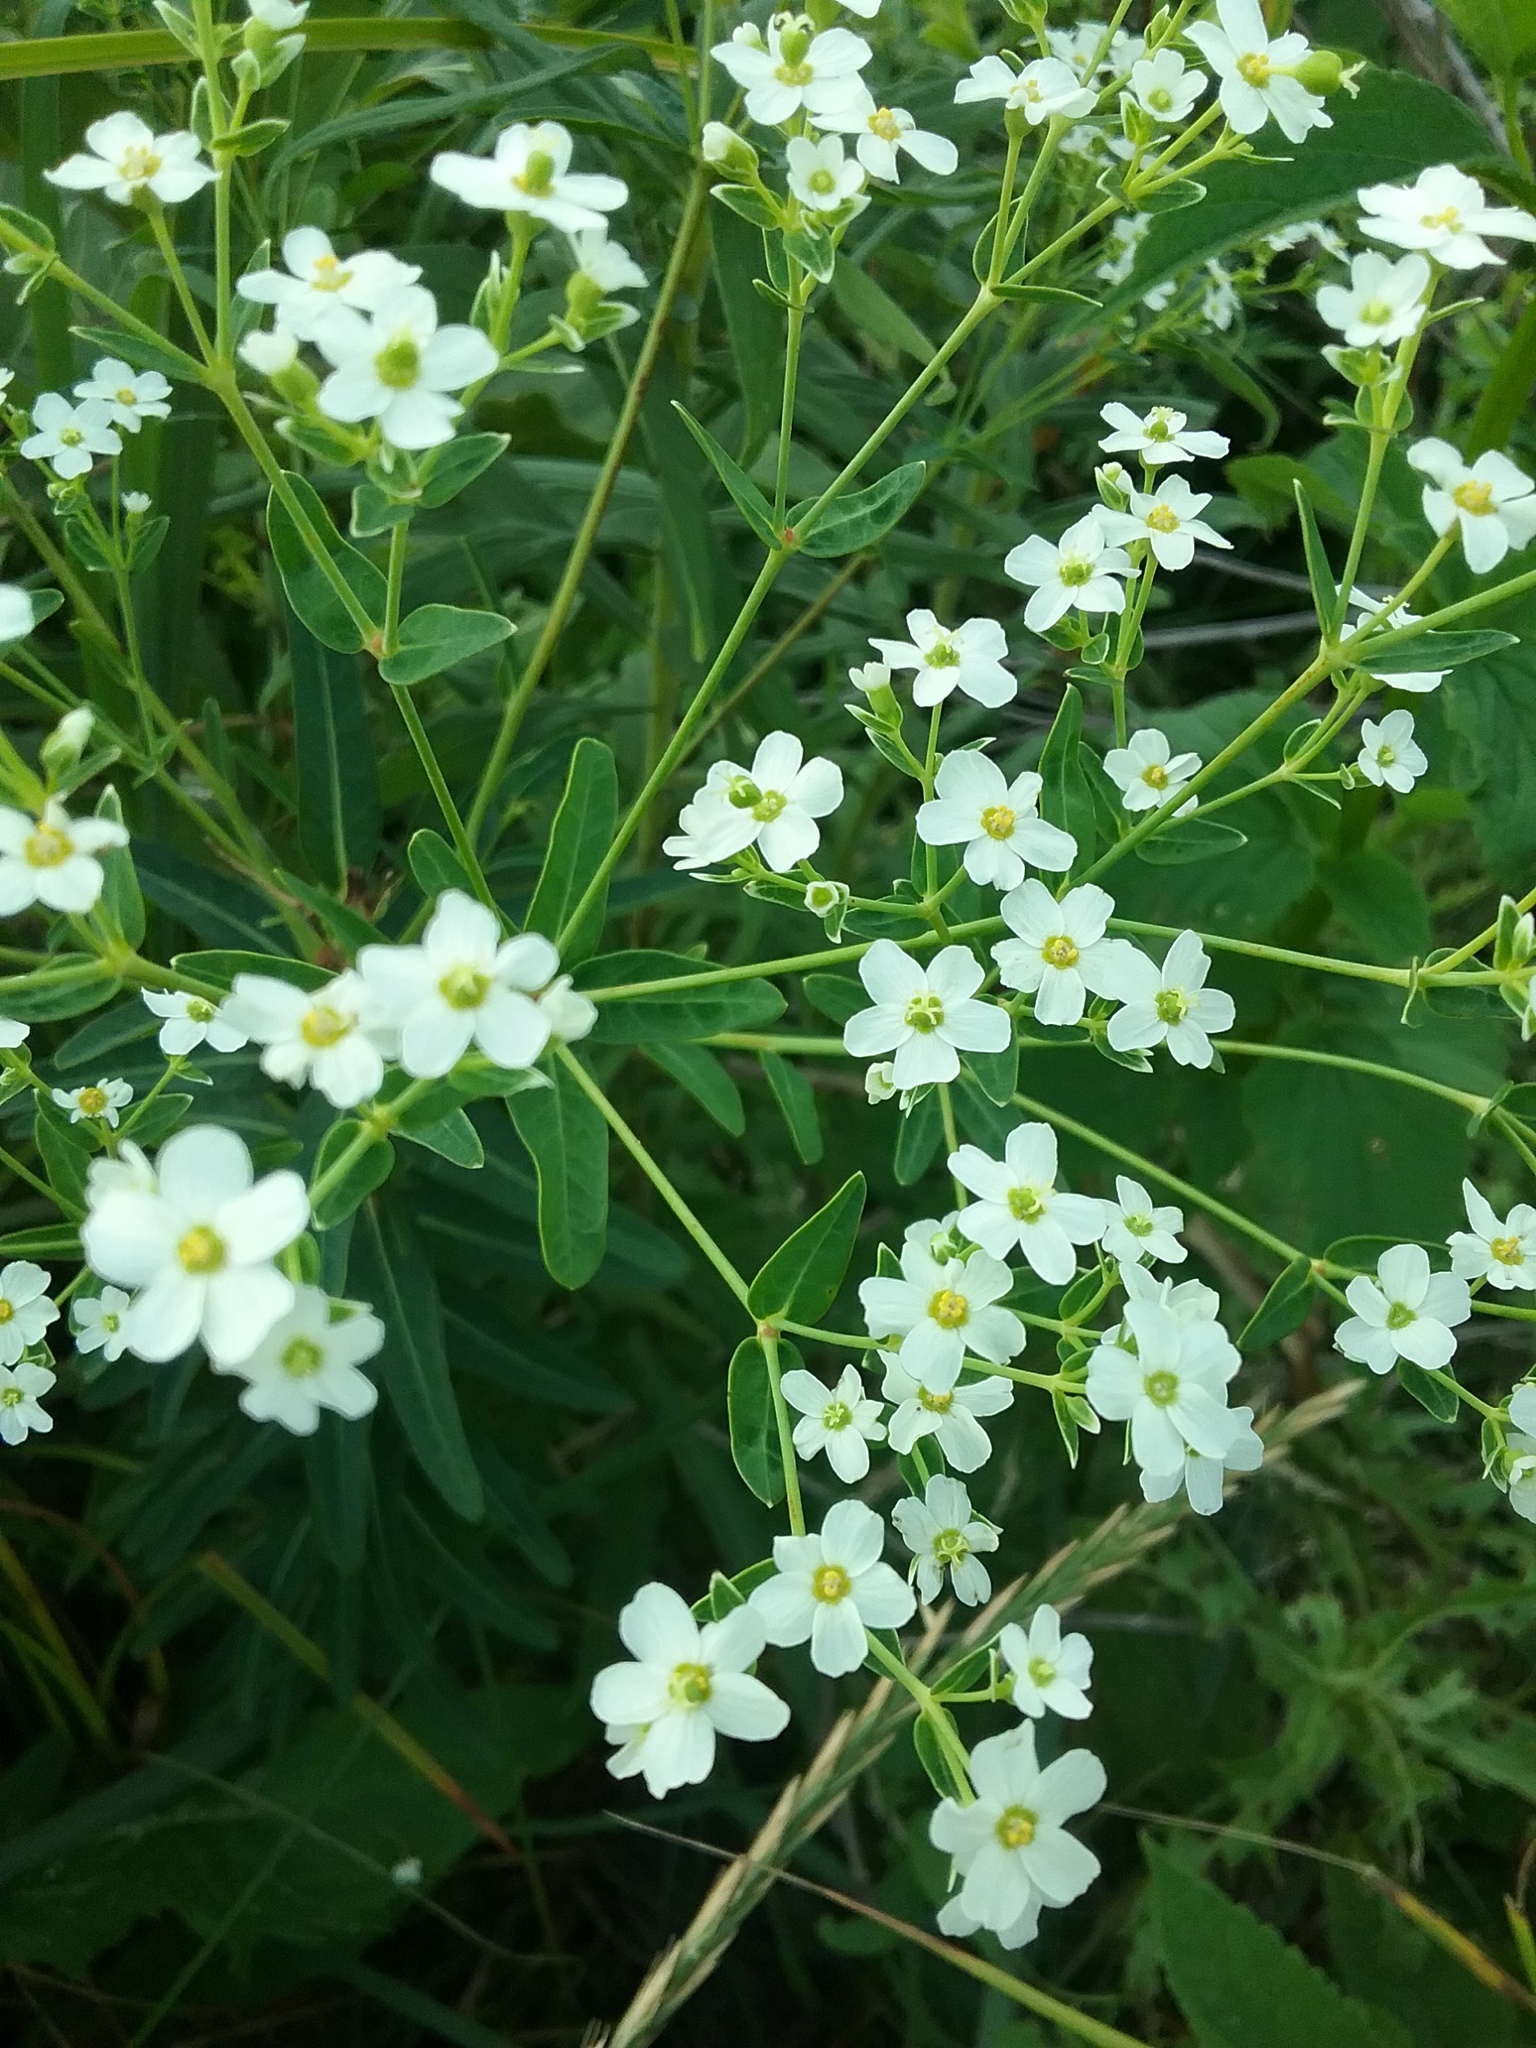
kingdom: Plantae
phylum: Tracheophyta
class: Magnoliopsida
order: Malpighiales
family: Euphorbiaceae
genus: Euphorbia
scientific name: Euphorbia corollata
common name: Flowering spurge
